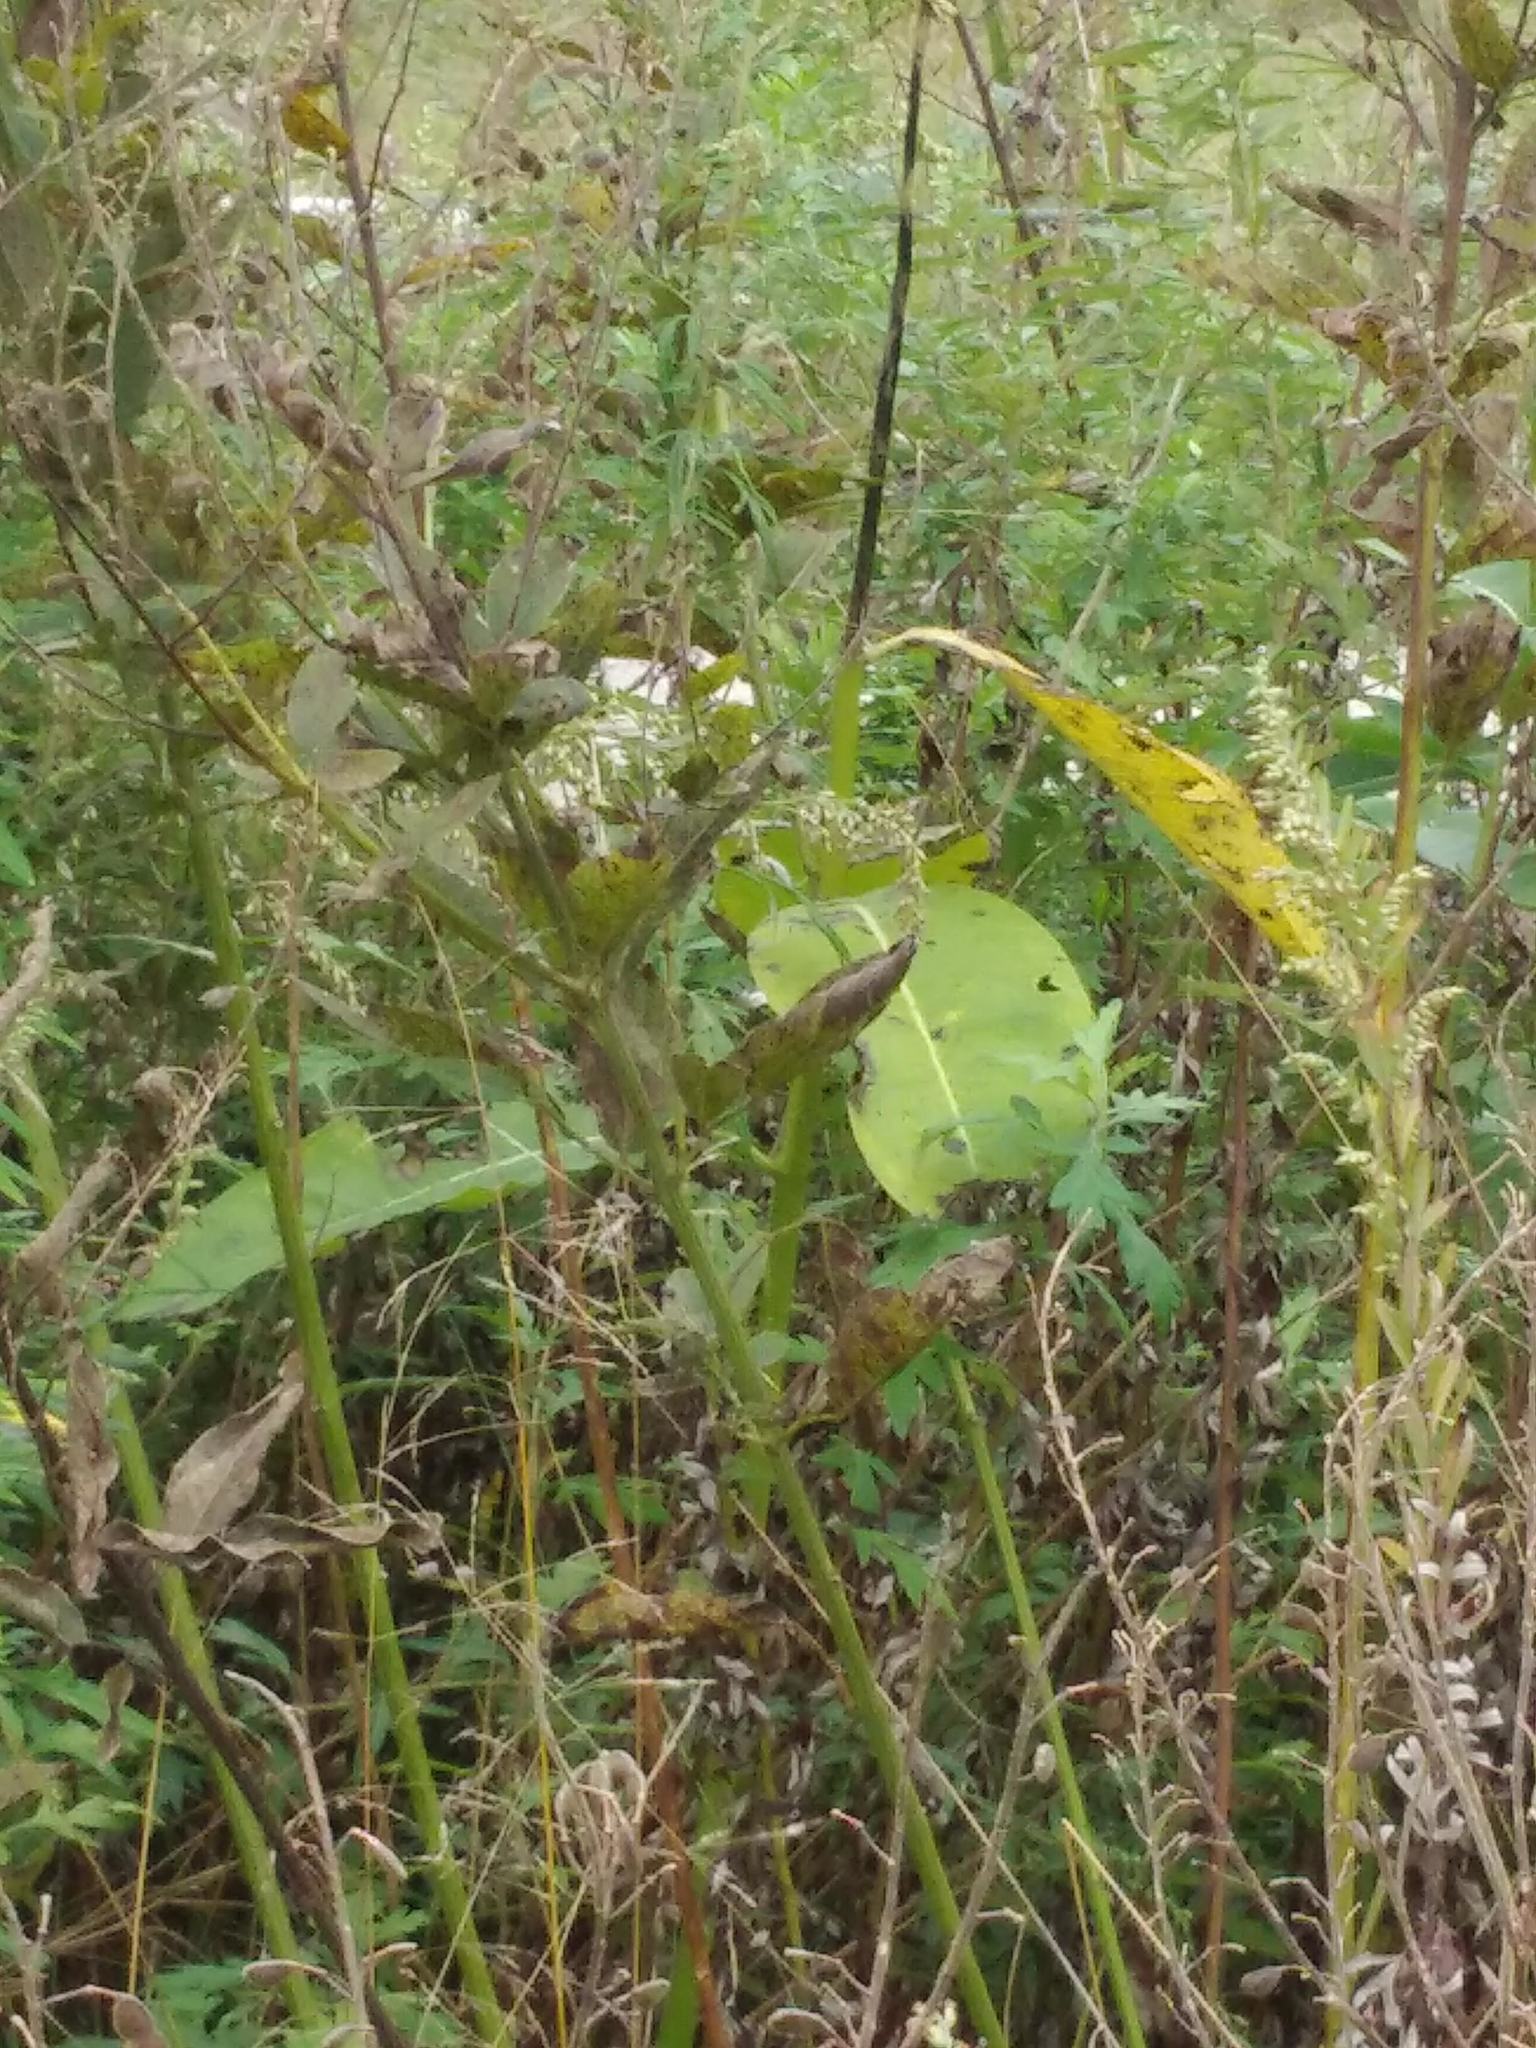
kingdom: Plantae
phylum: Tracheophyta
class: Magnoliopsida
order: Gentianales
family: Apocynaceae
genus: Asclepias
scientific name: Asclepias syriaca
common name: Common milkweed
